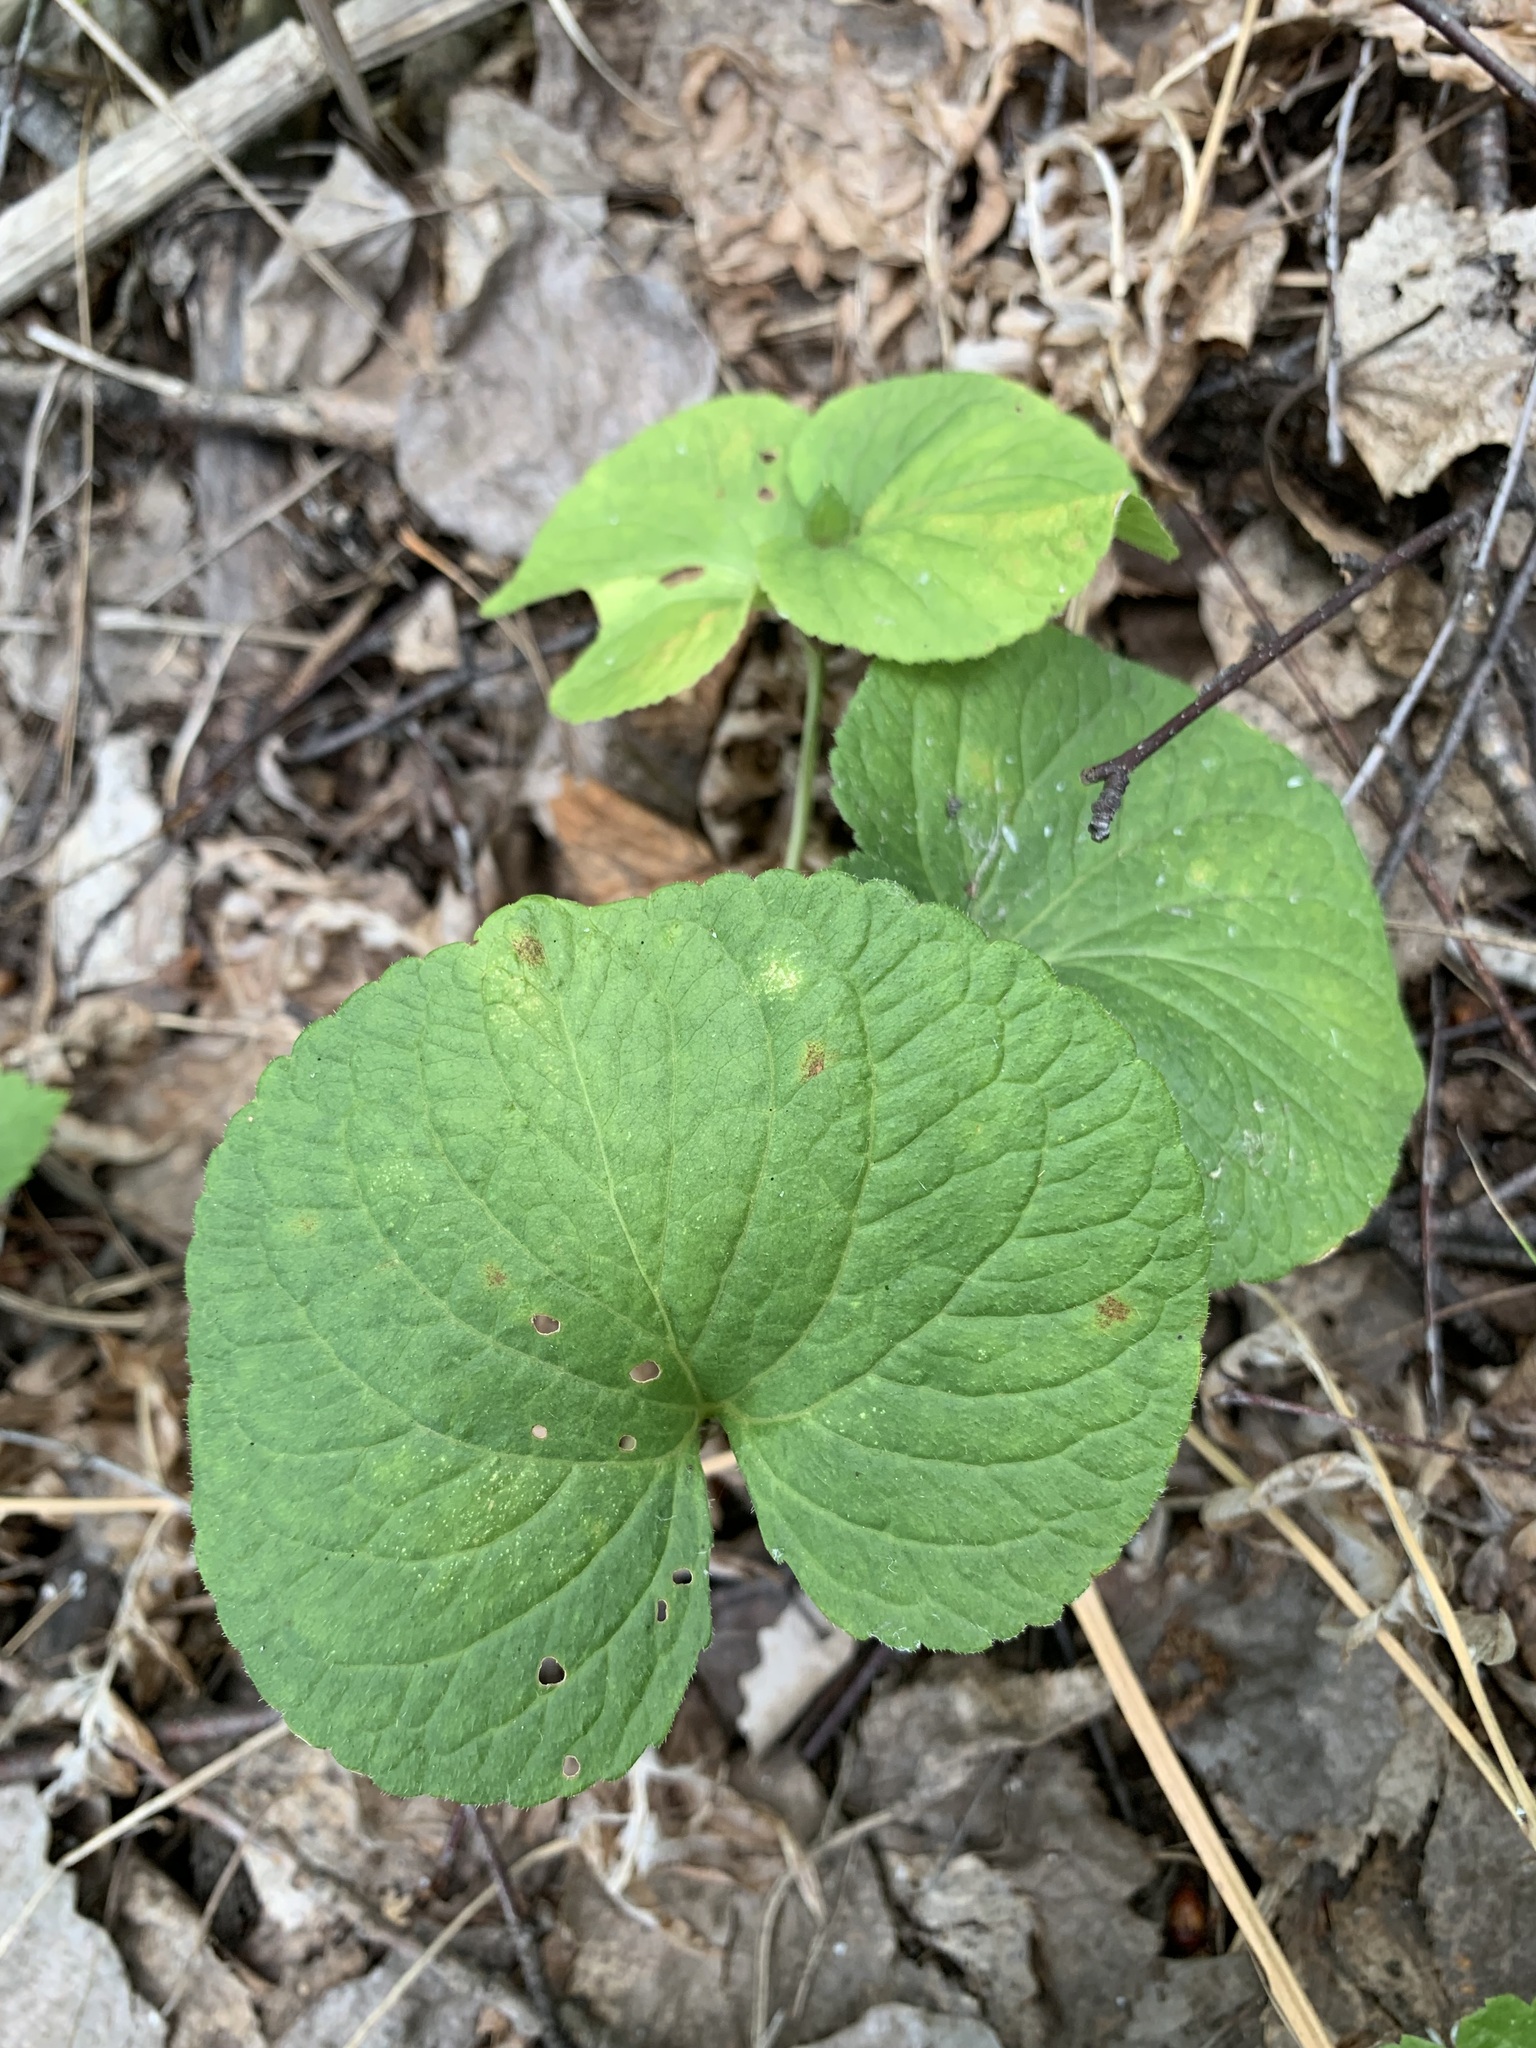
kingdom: Plantae
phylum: Tracheophyta
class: Magnoliopsida
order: Malpighiales
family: Violaceae
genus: Viola
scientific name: Viola mirabilis
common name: Wonder violet
